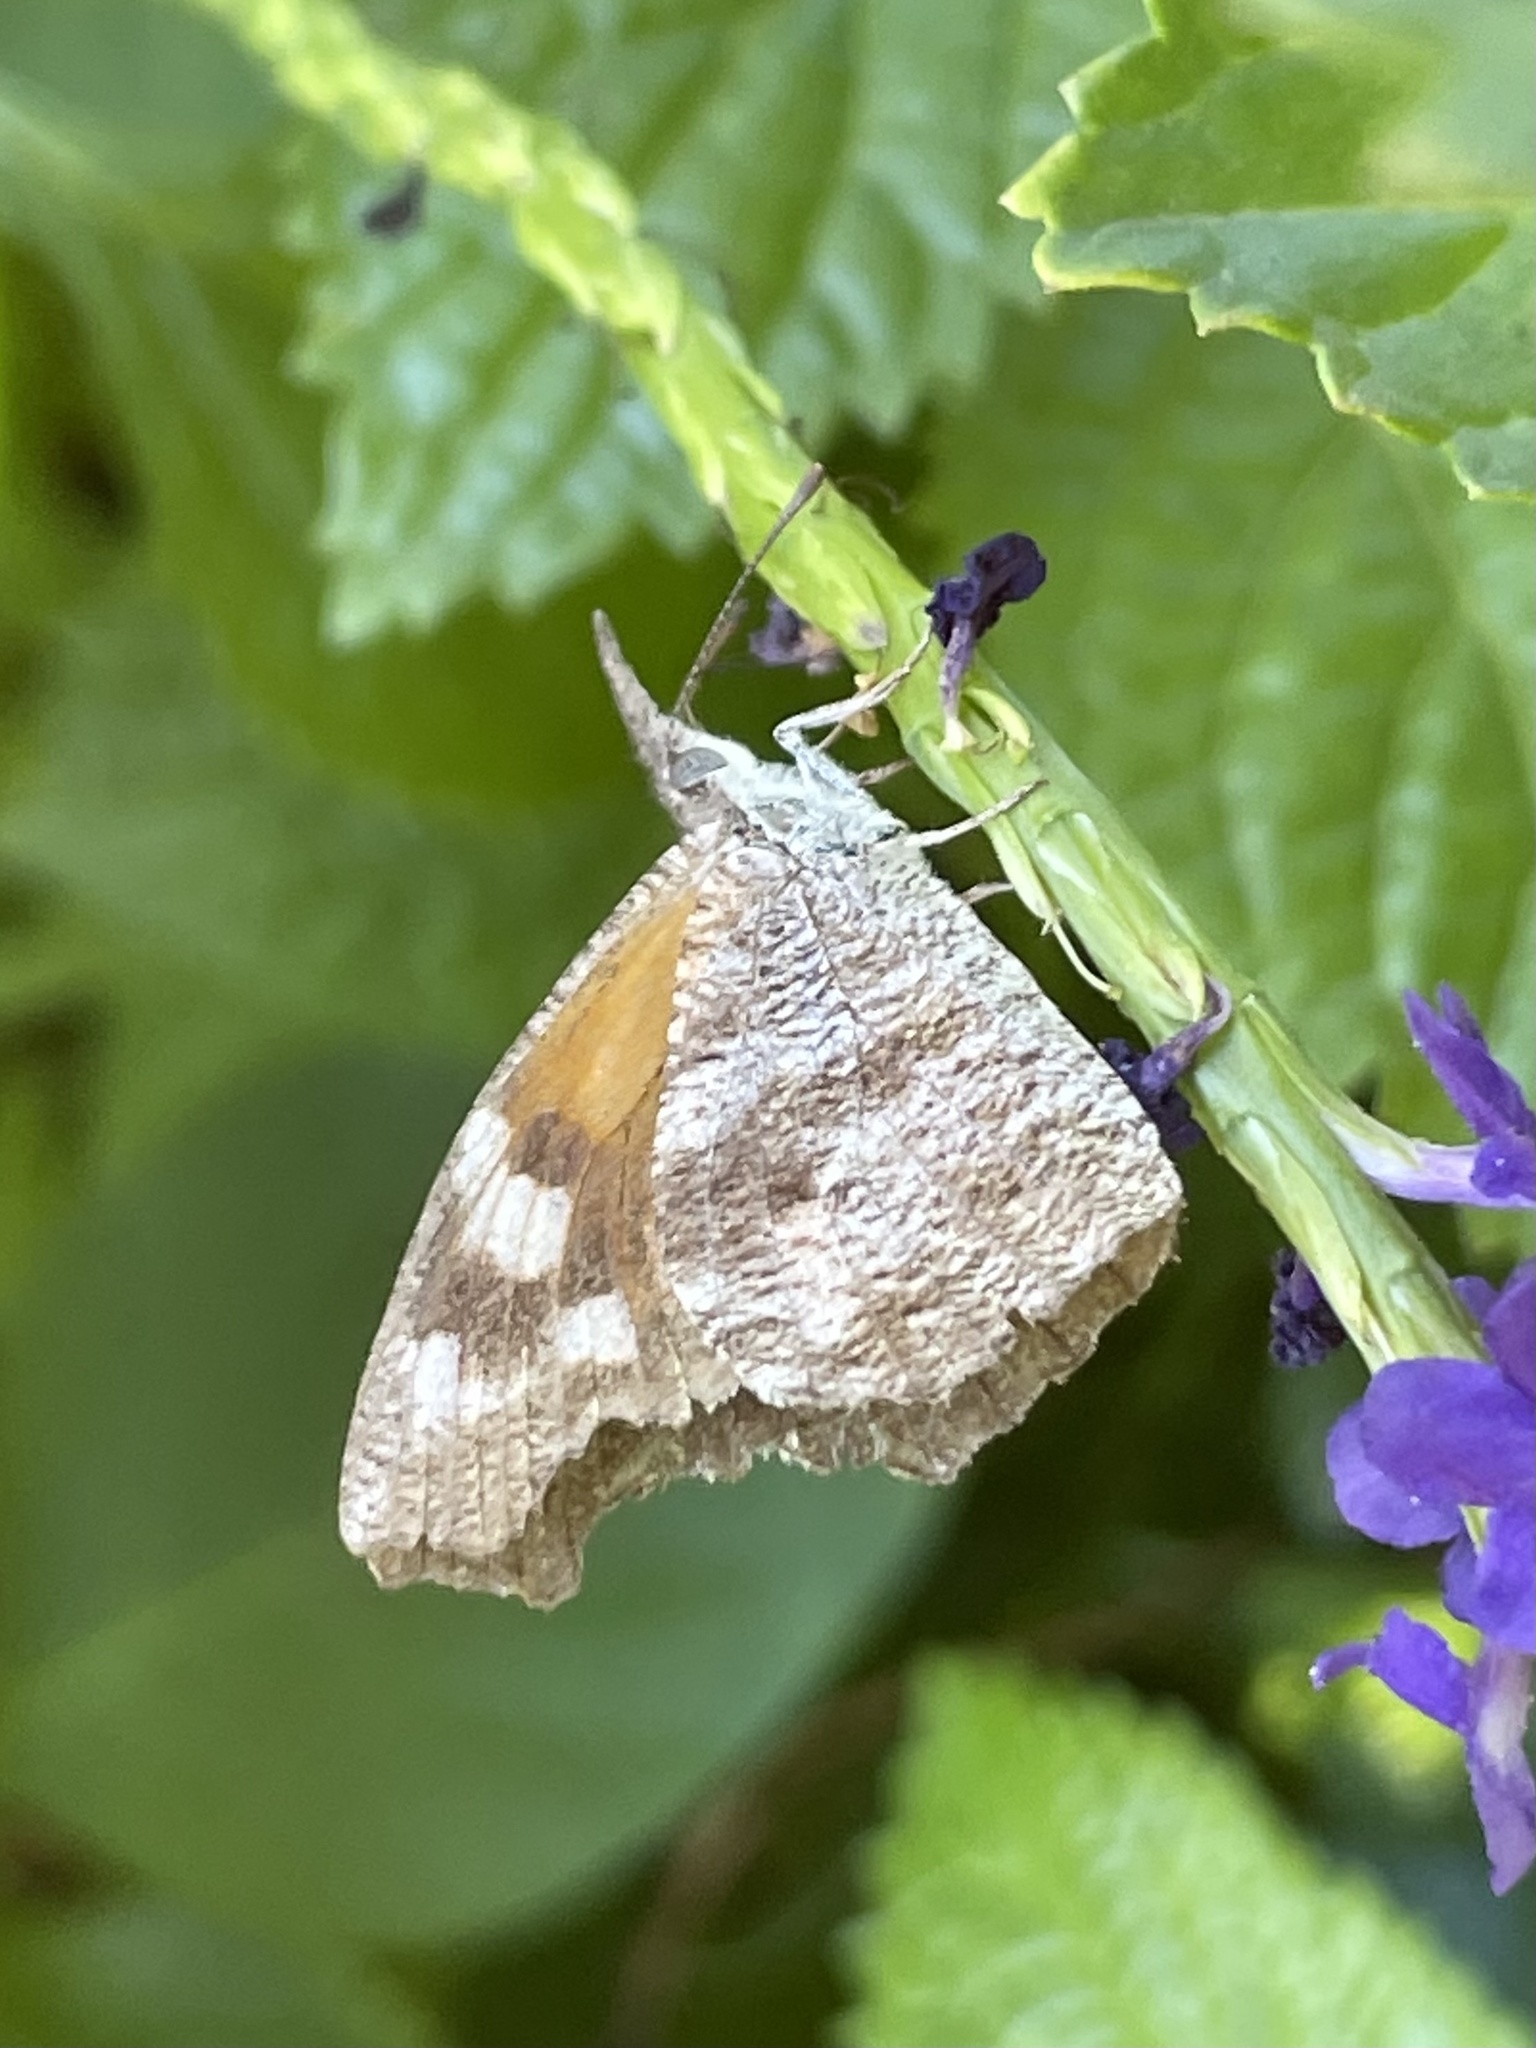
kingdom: Animalia
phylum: Arthropoda
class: Insecta
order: Lepidoptera
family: Nymphalidae
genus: Libytheana
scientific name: Libytheana carinenta
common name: American snout
